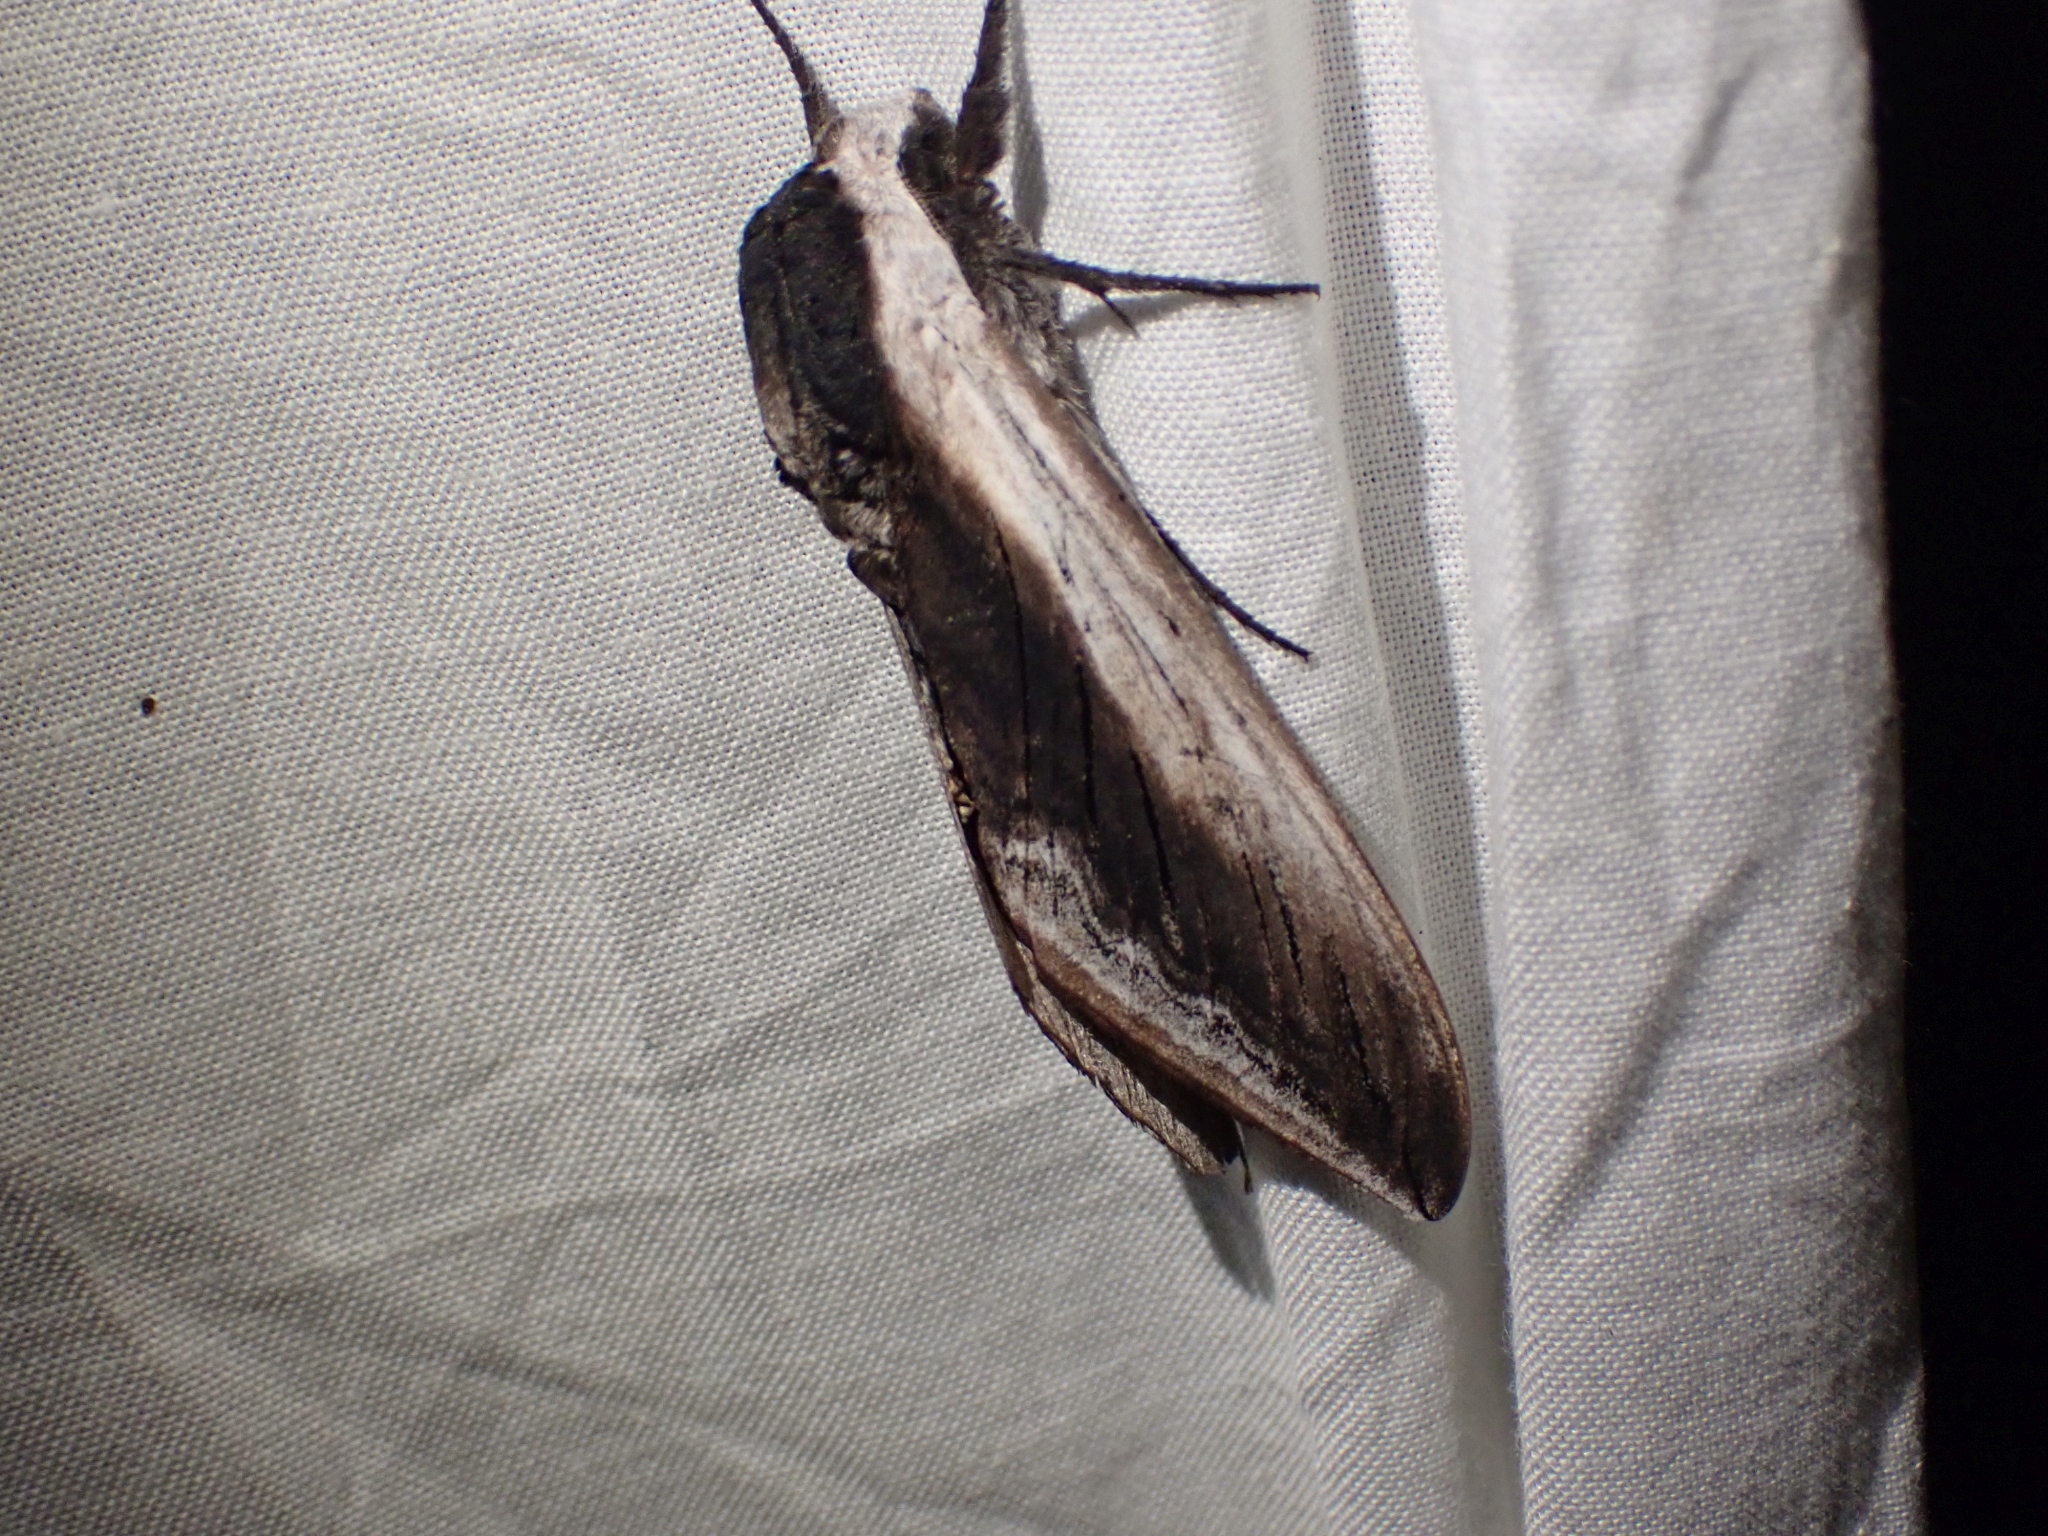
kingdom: Animalia
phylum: Arthropoda
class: Insecta
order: Lepidoptera
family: Sphingidae
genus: Sphinx
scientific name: Sphinx drupiferarum
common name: Wild cherry sphinx
